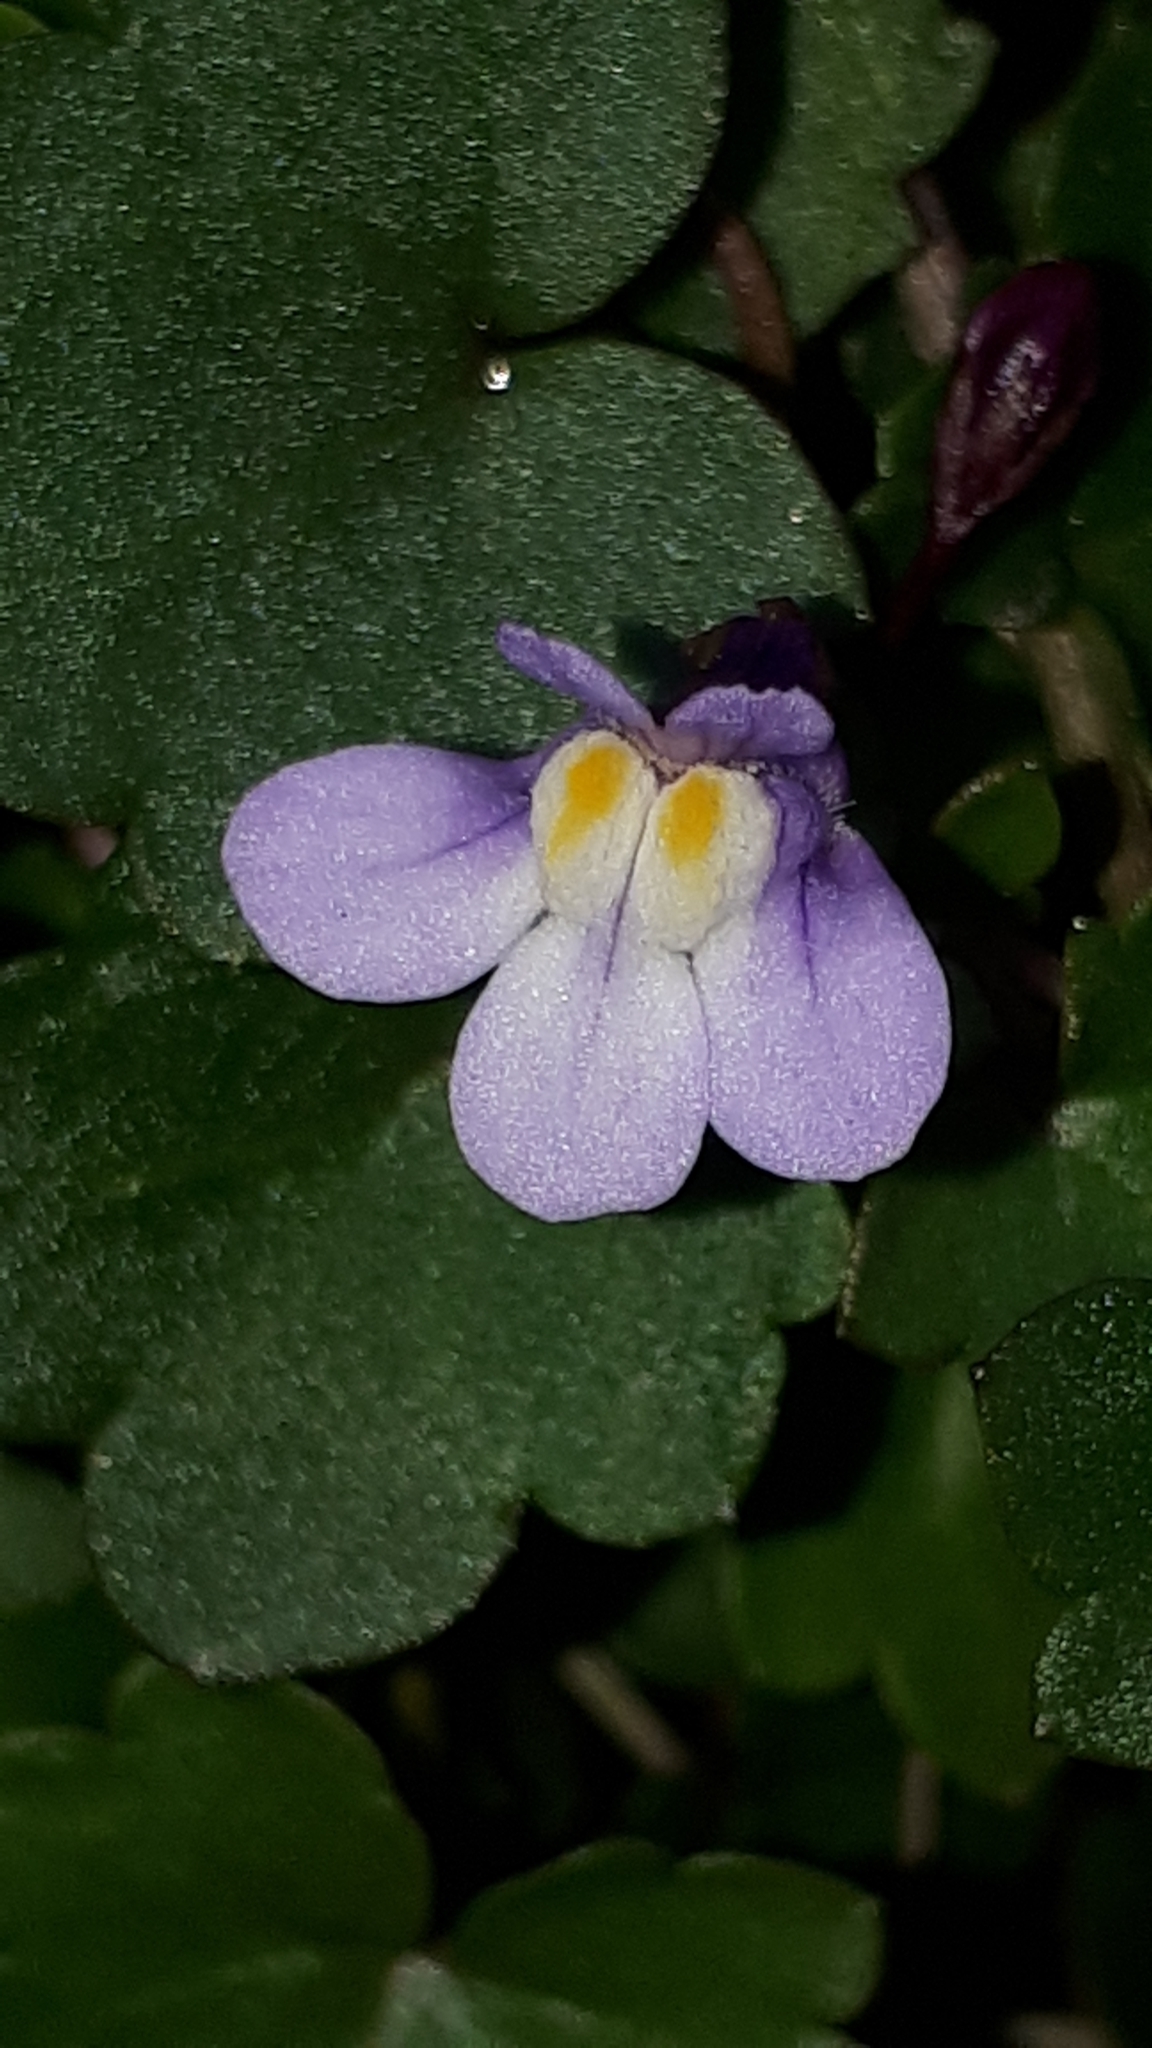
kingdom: Plantae
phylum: Tracheophyta
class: Magnoliopsida
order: Lamiales
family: Plantaginaceae
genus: Cymbalaria
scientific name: Cymbalaria muralis
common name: Ivy-leaved toadflax
